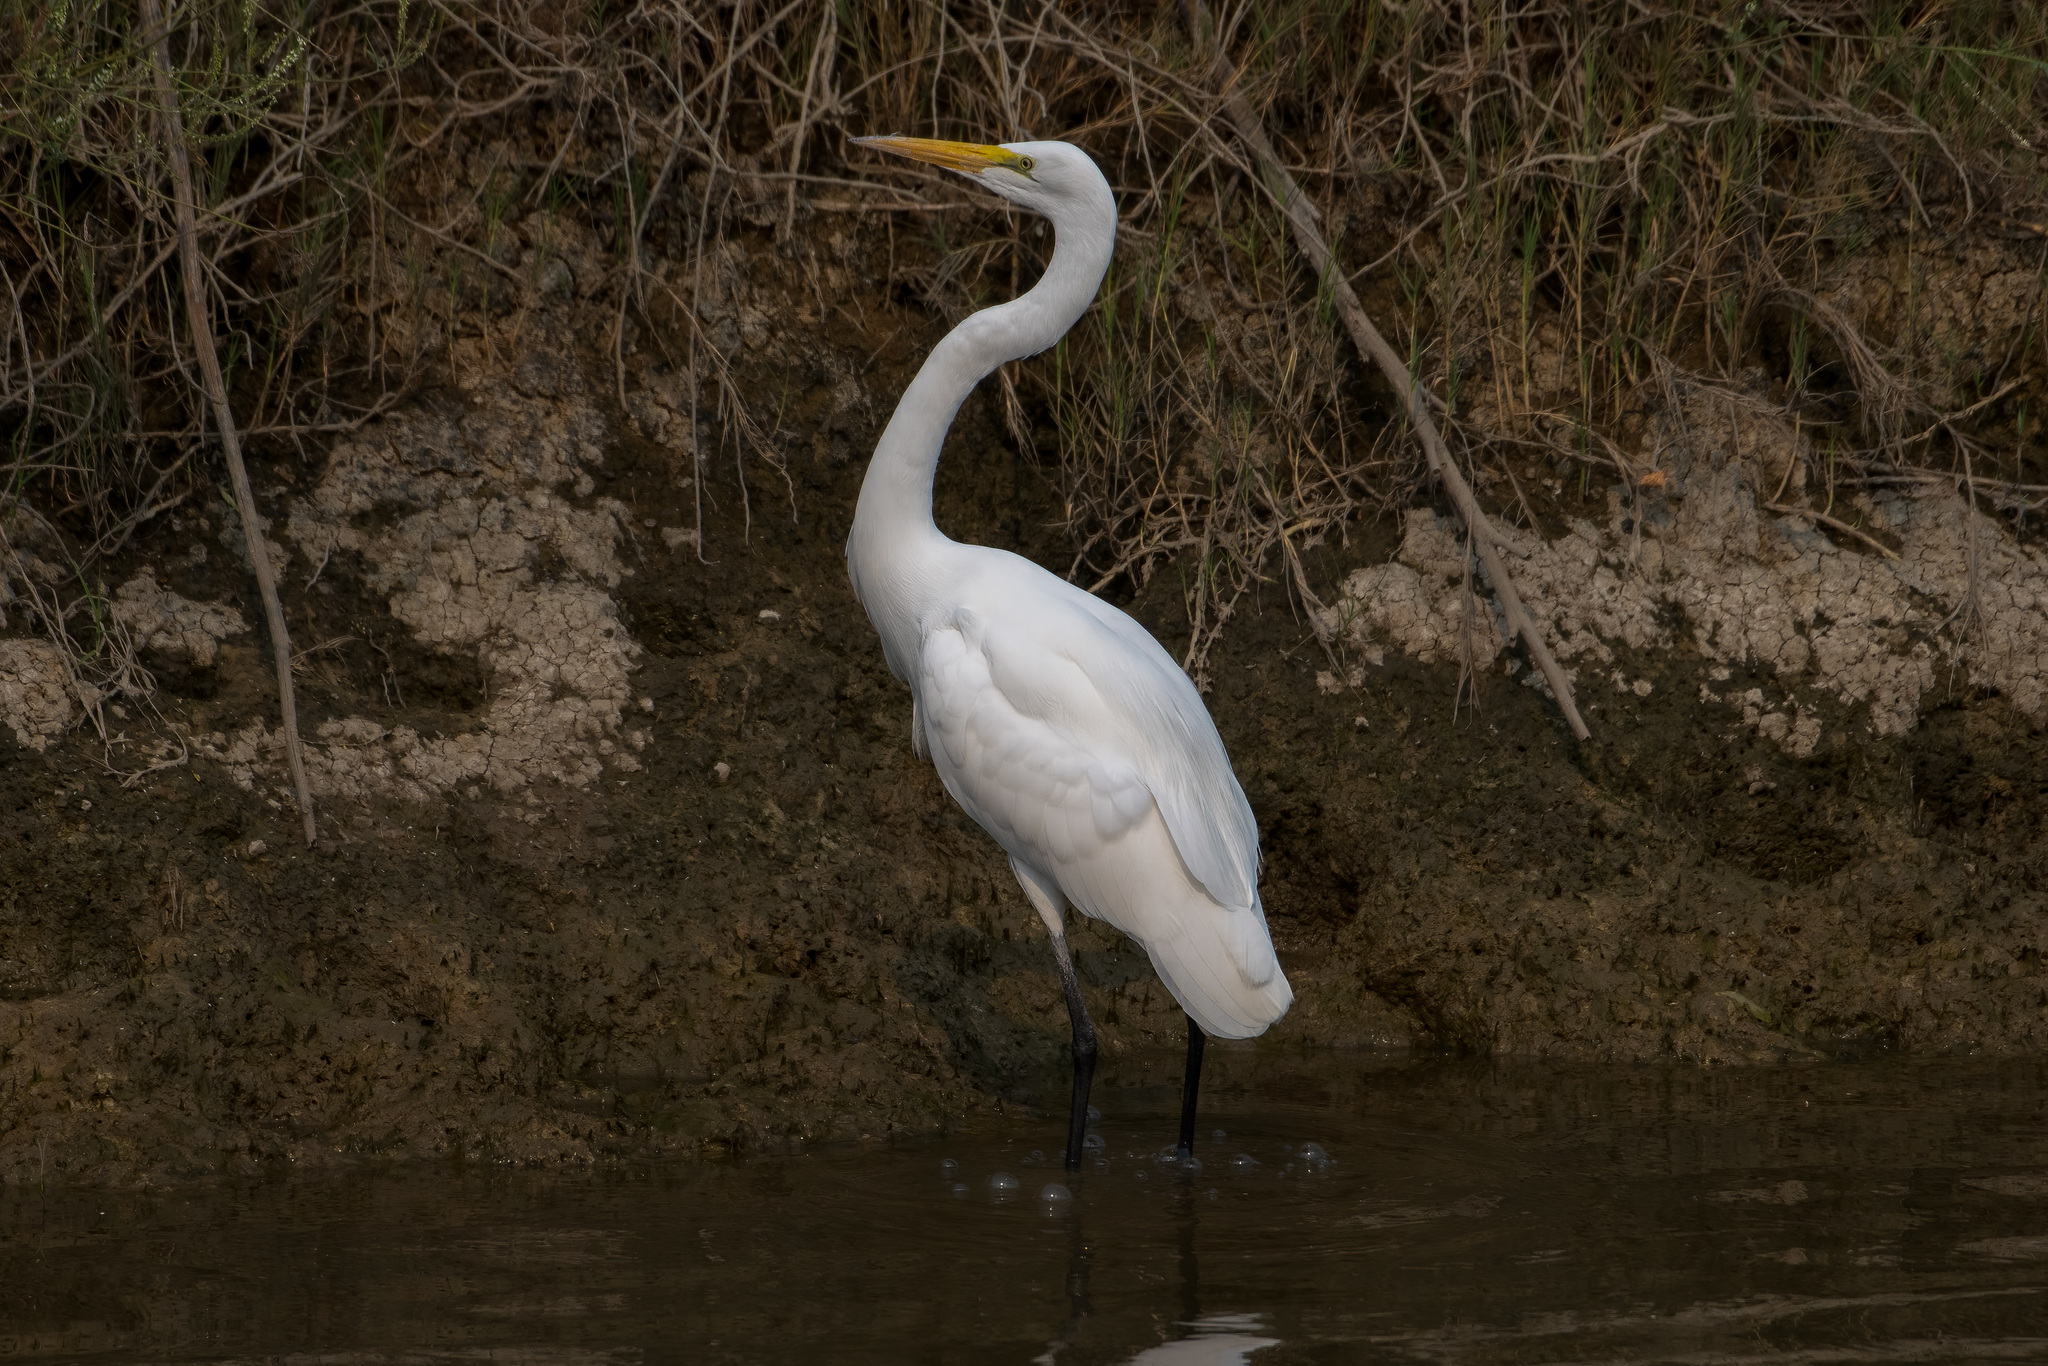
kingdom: Animalia
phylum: Chordata
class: Aves
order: Pelecaniformes
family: Ardeidae
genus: Ardea
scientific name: Ardea alba
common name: Great egret
